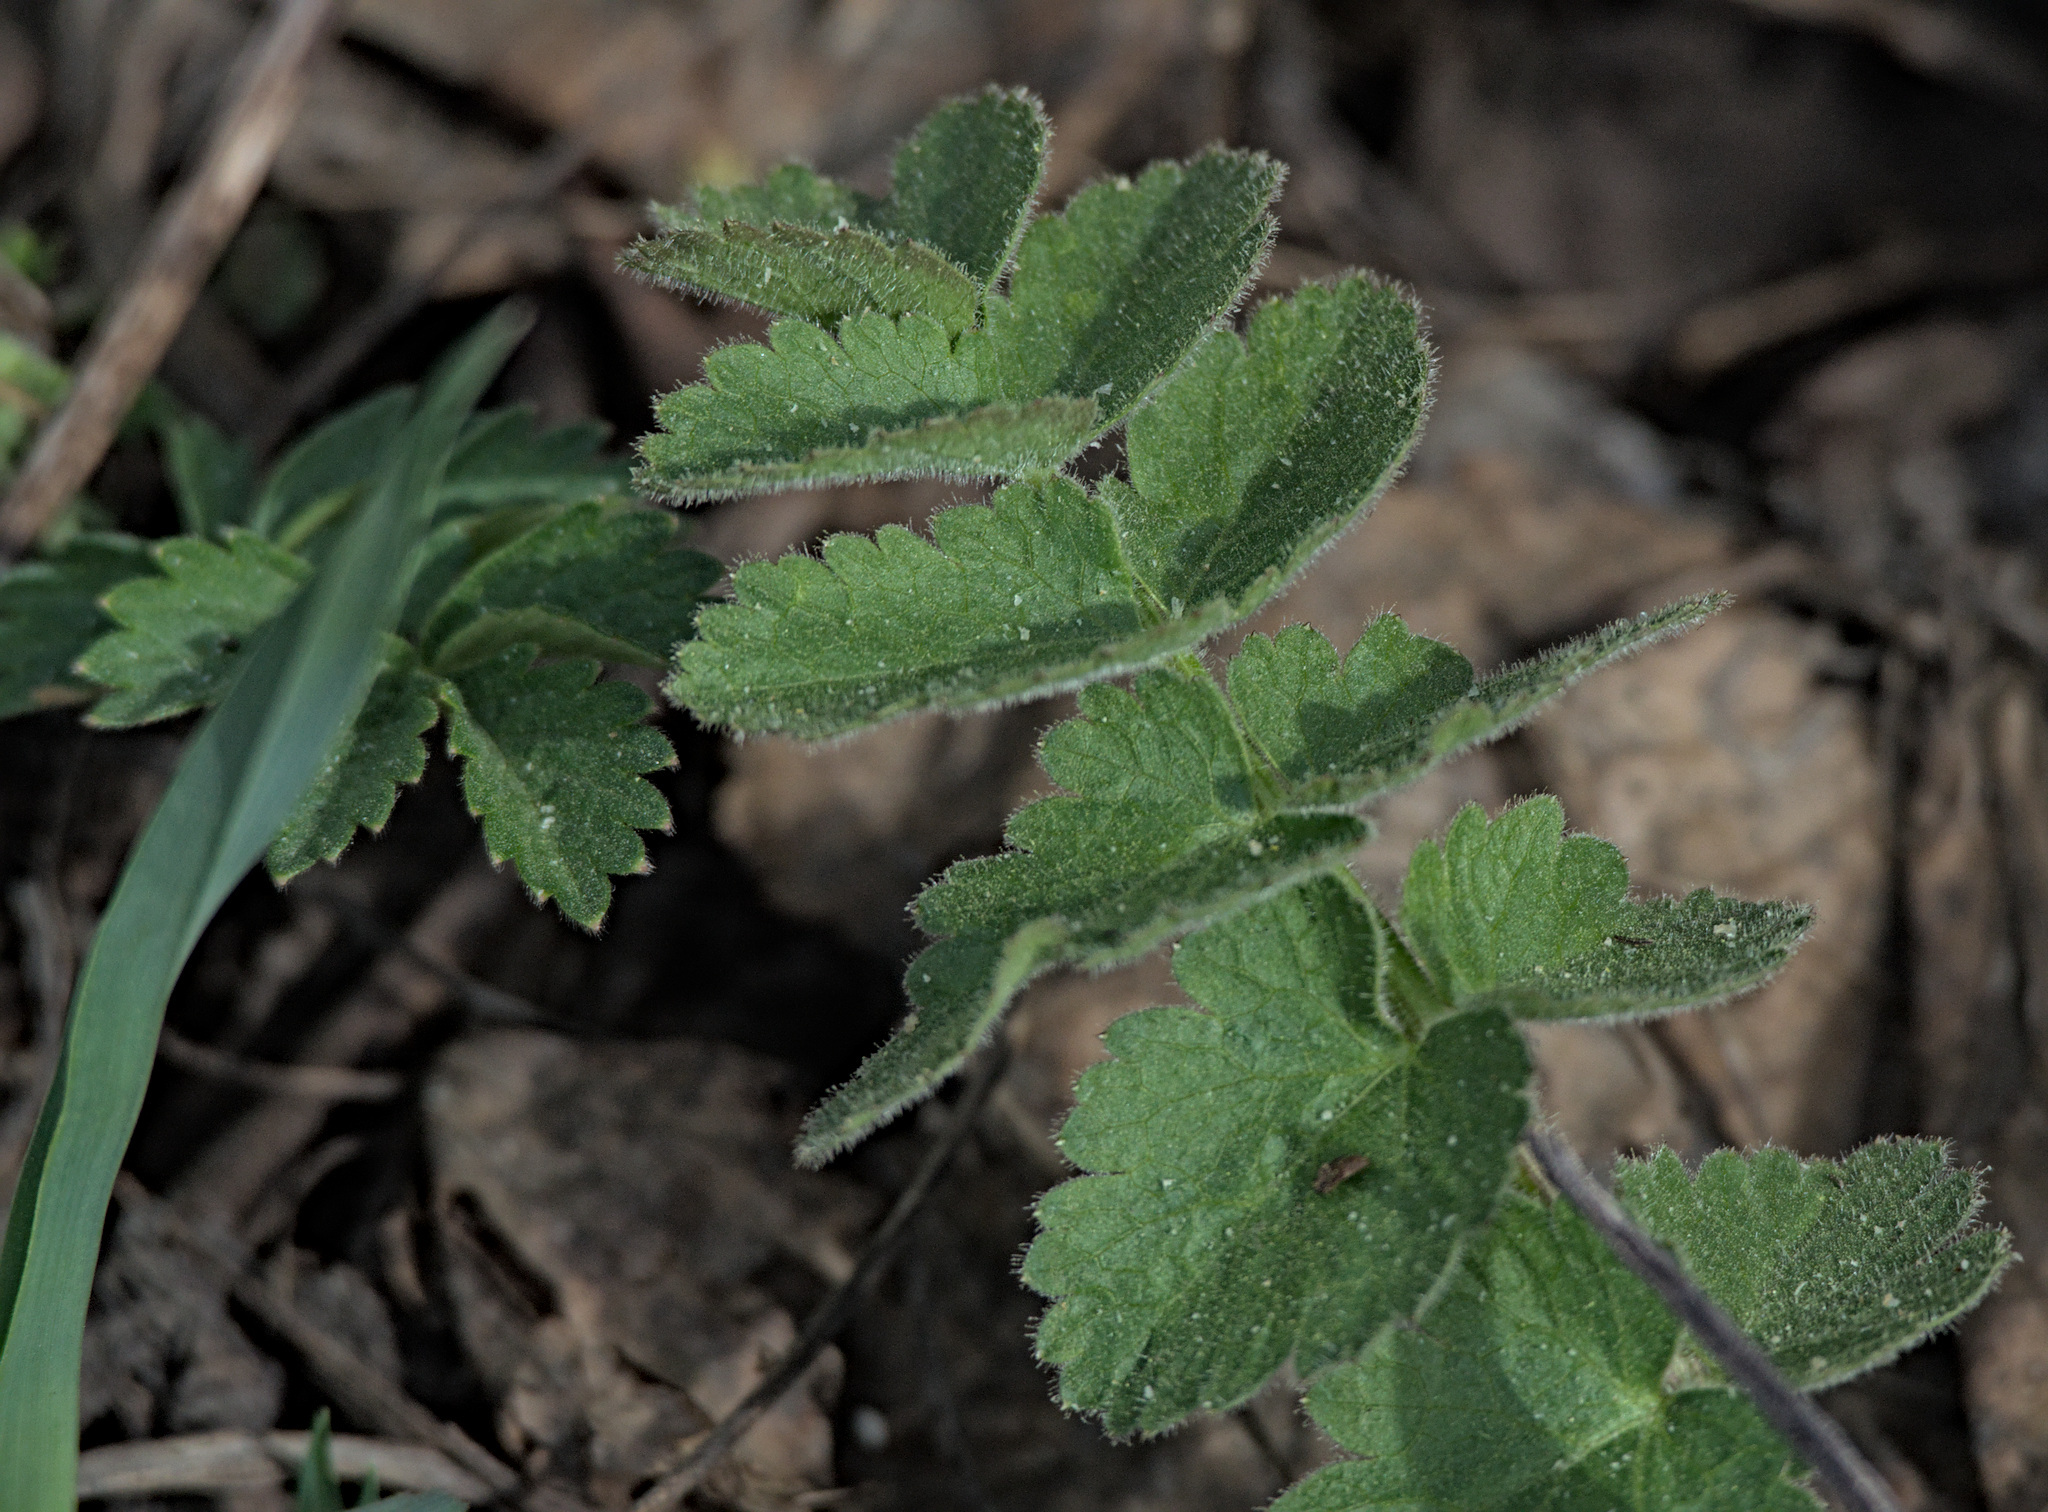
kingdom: Plantae
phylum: Tracheophyta
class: Magnoliopsida
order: Apiales
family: Apiaceae
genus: Pimpinella
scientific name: Pimpinella saxifraga
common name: Burnet-saxifrage
